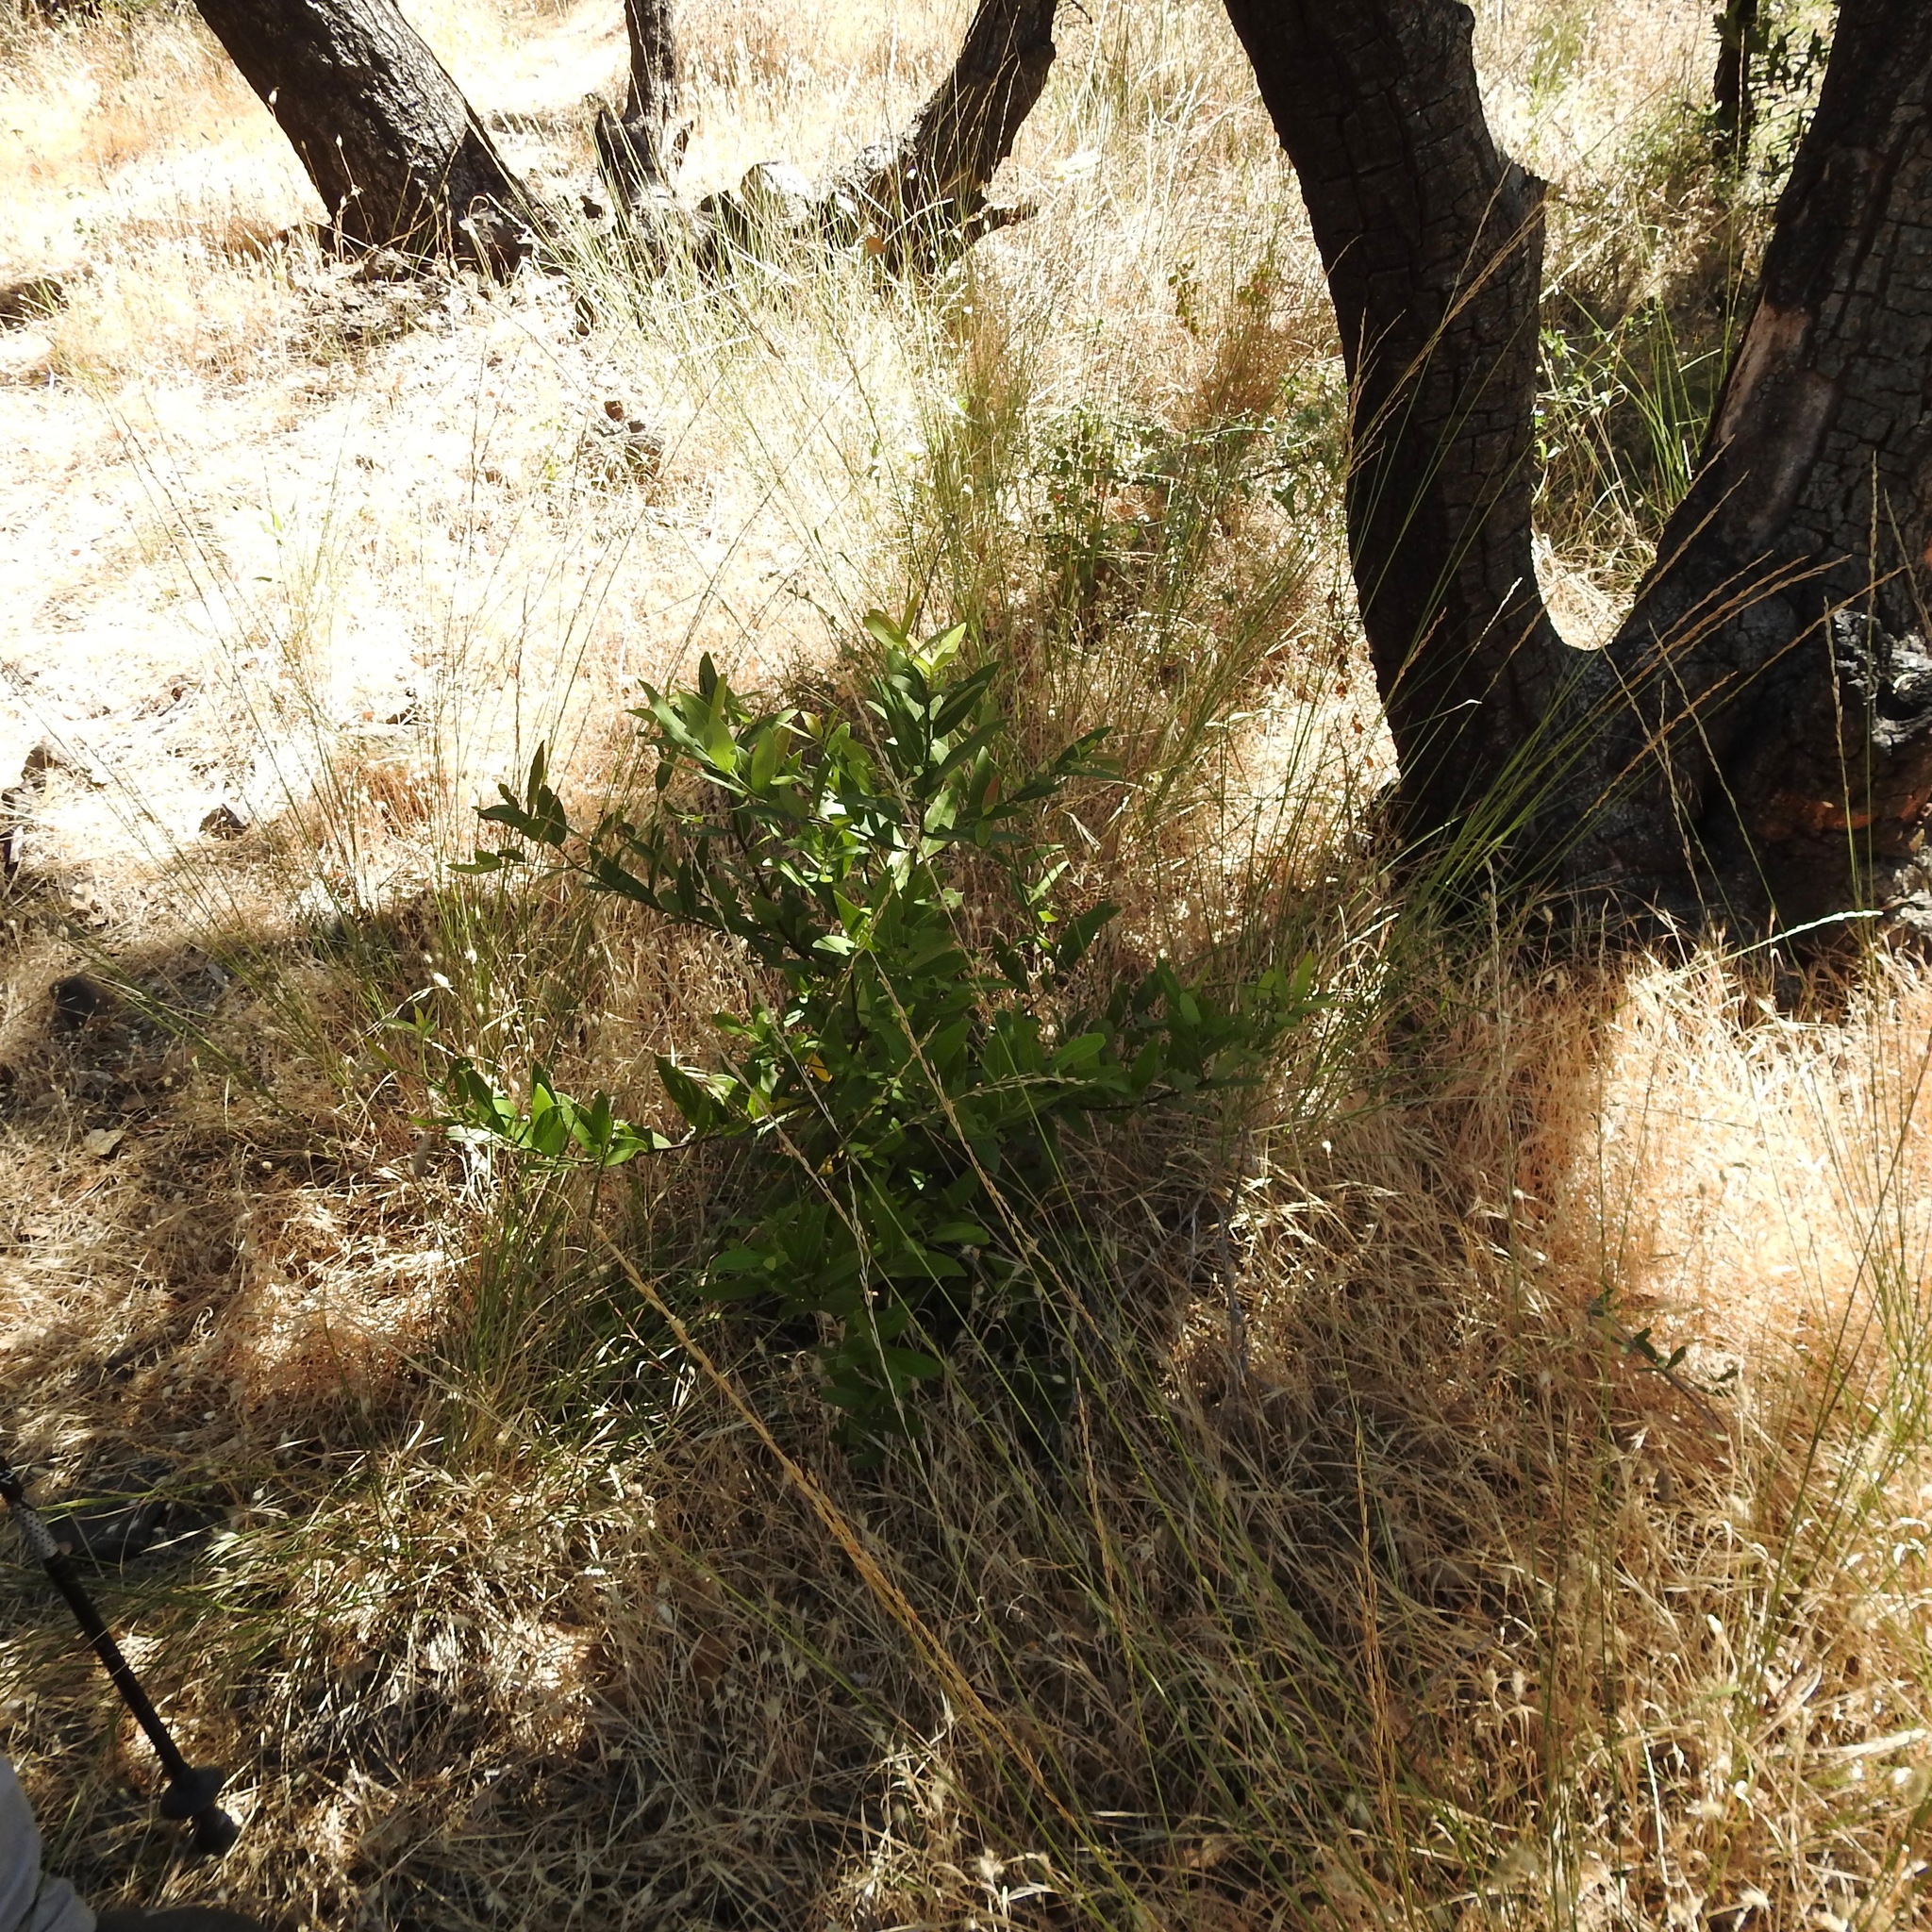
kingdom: Plantae
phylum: Tracheophyta
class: Magnoliopsida
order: Laurales
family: Lauraceae
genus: Umbellularia
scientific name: Umbellularia californica
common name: California bay
